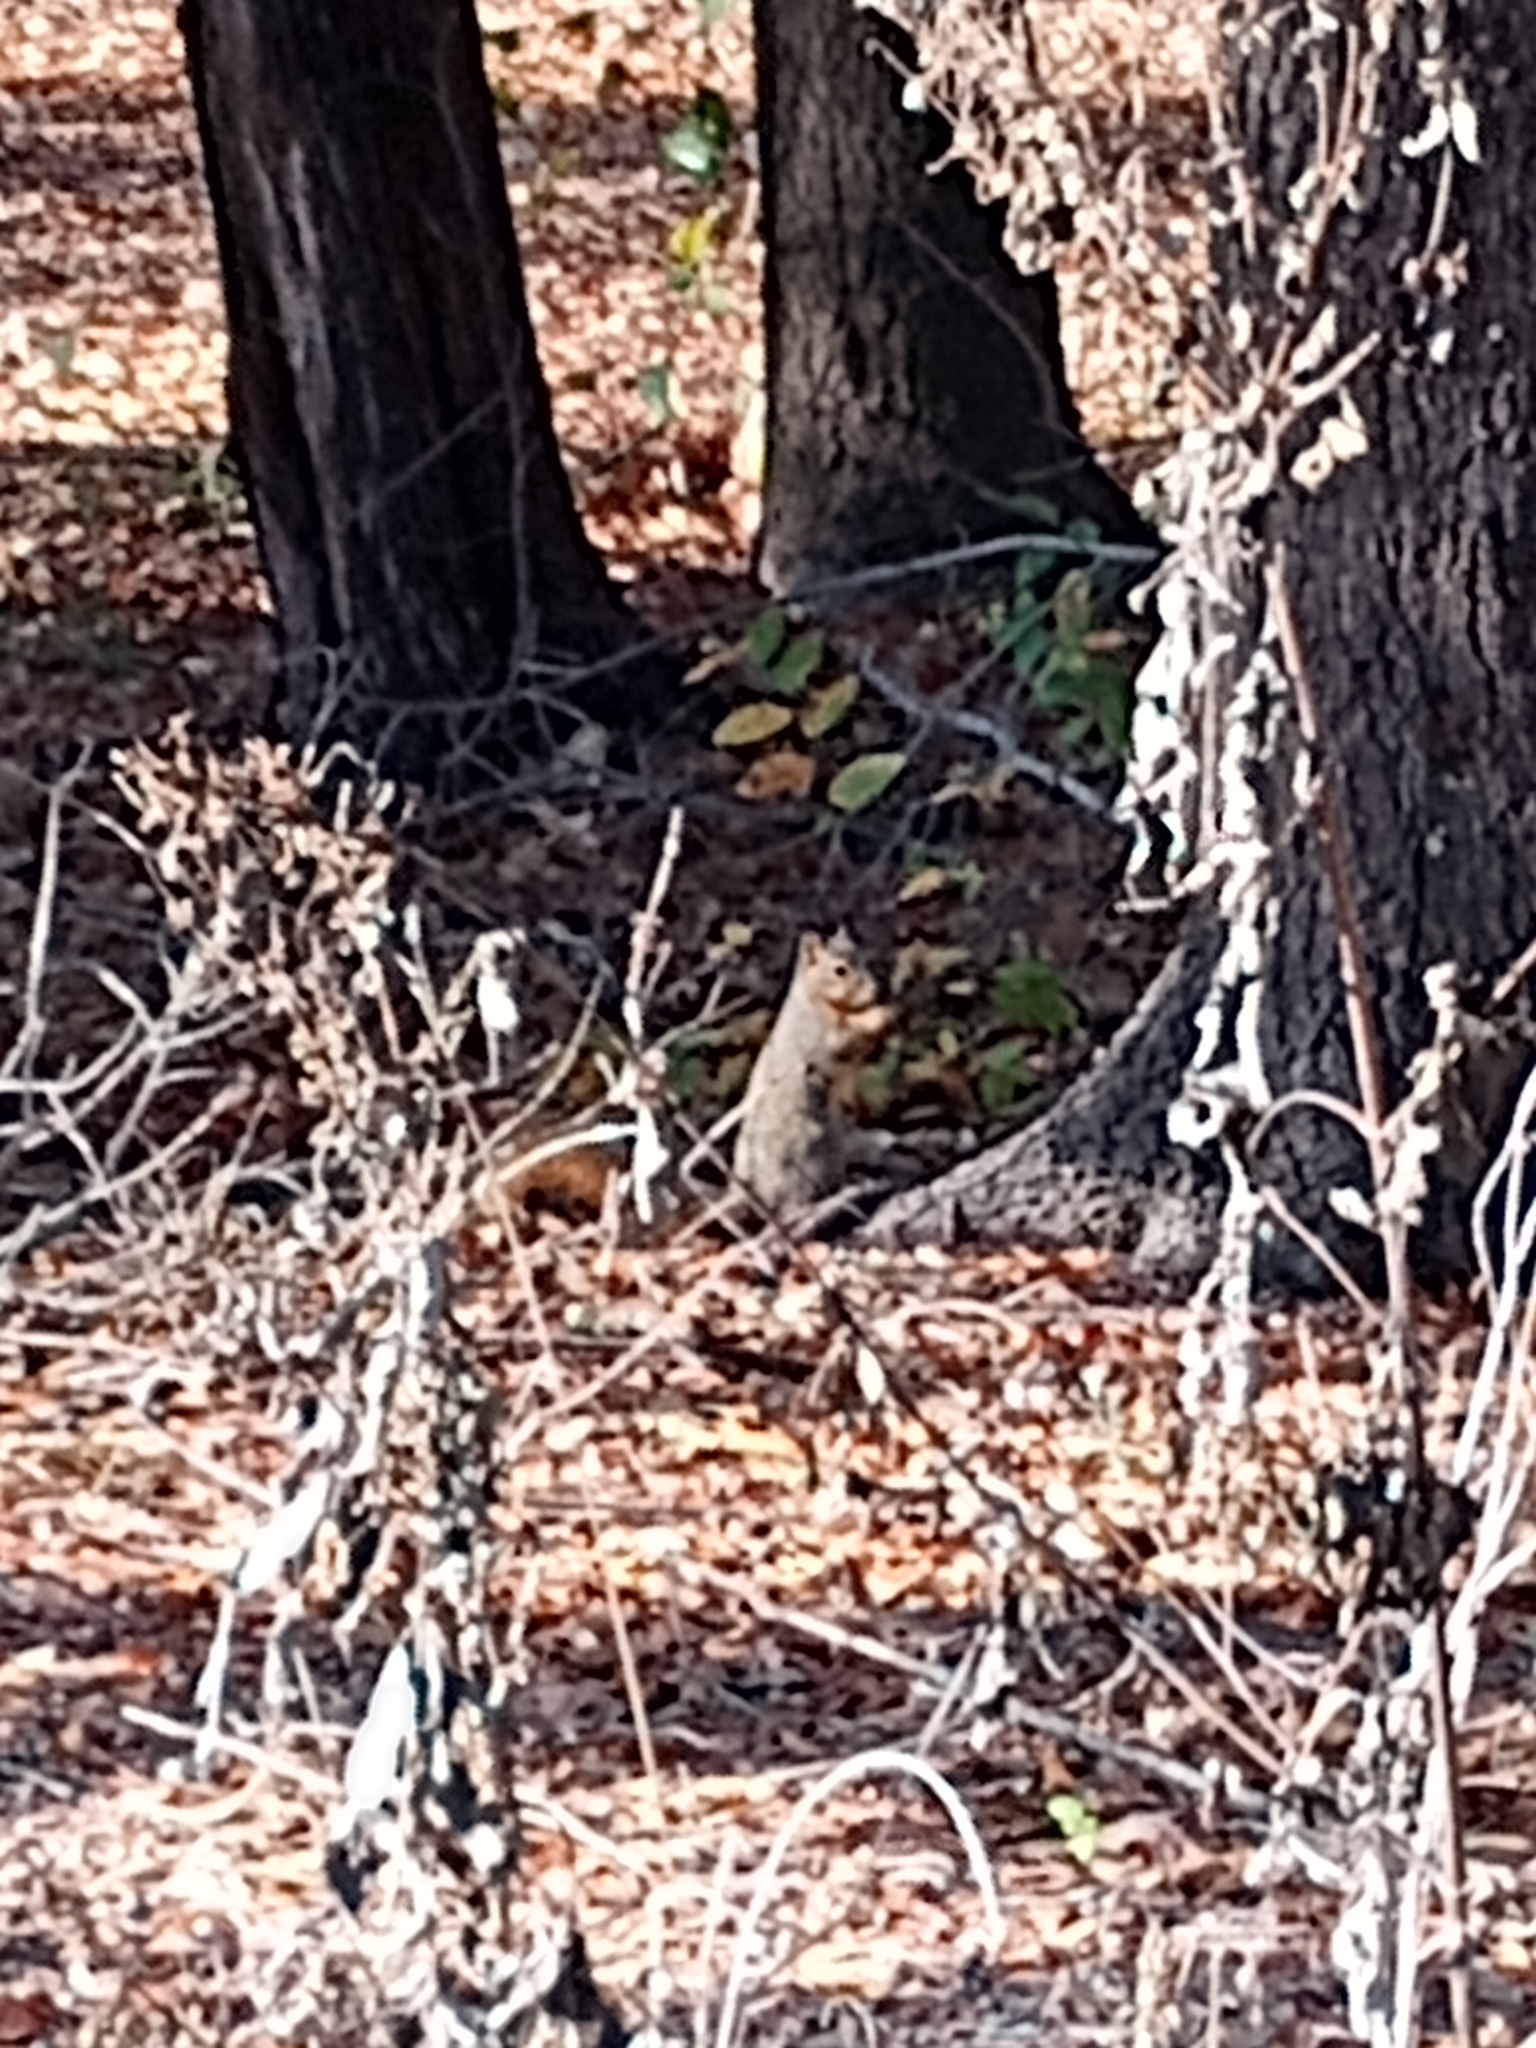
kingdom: Animalia
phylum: Chordata
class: Mammalia
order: Rodentia
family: Sciuridae
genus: Sciurus
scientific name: Sciurus niger
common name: Fox squirrel
